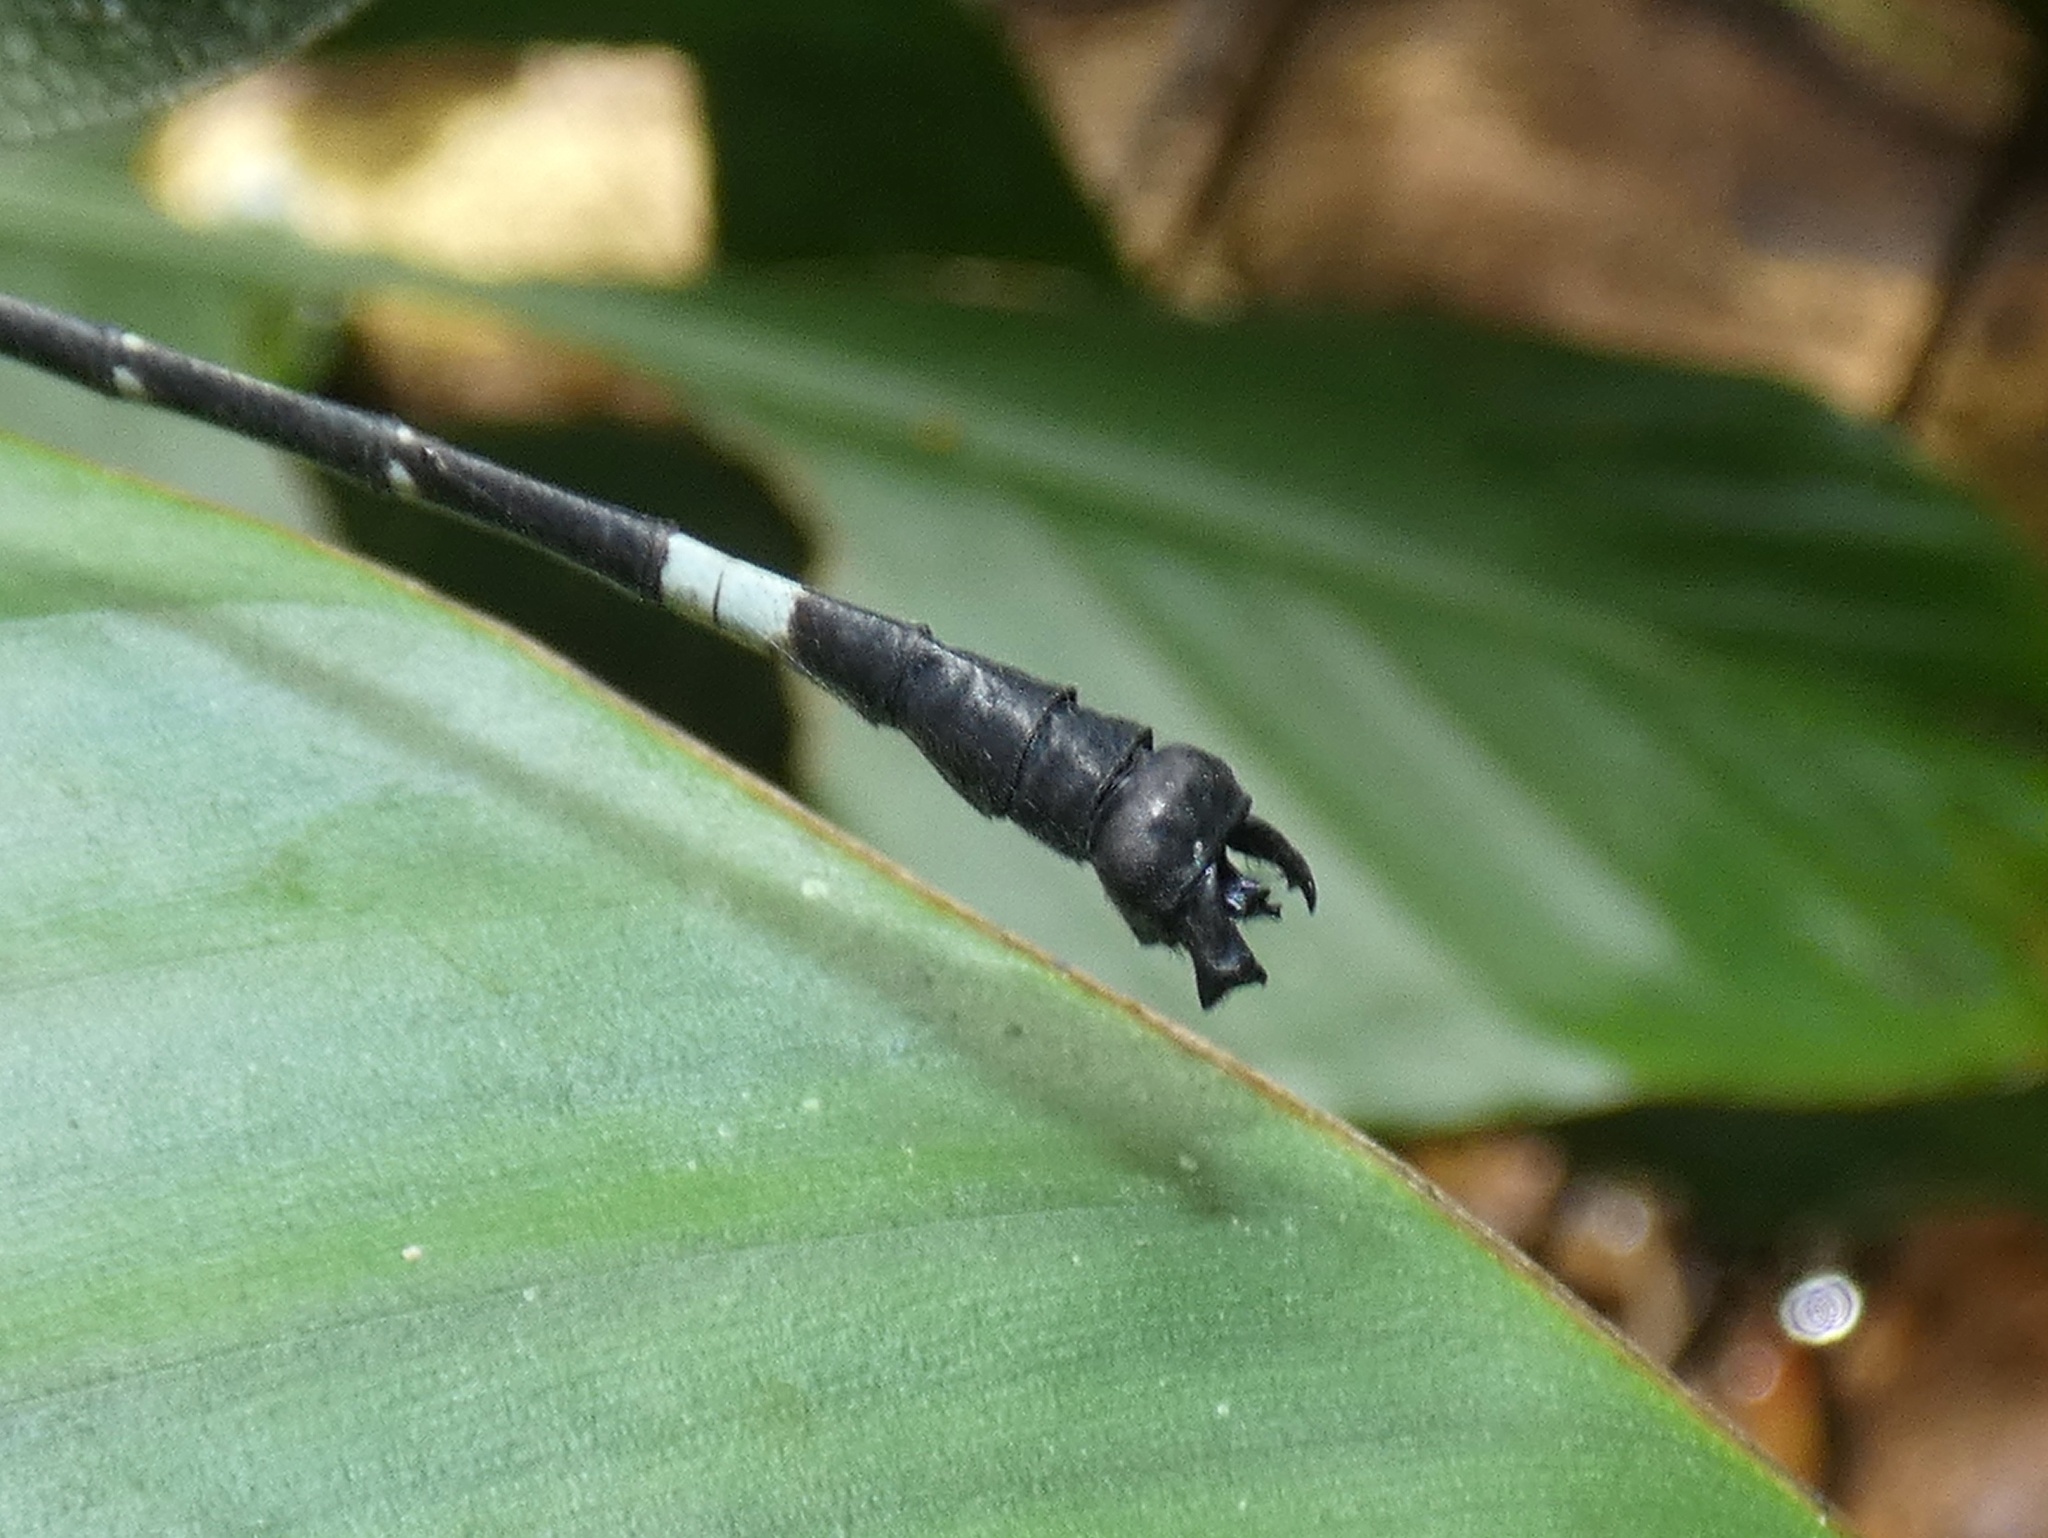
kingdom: Animalia
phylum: Arthropoda
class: Insecta
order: Odonata
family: Gomphidae
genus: Epigomphus
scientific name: Epigomphus quadracies
